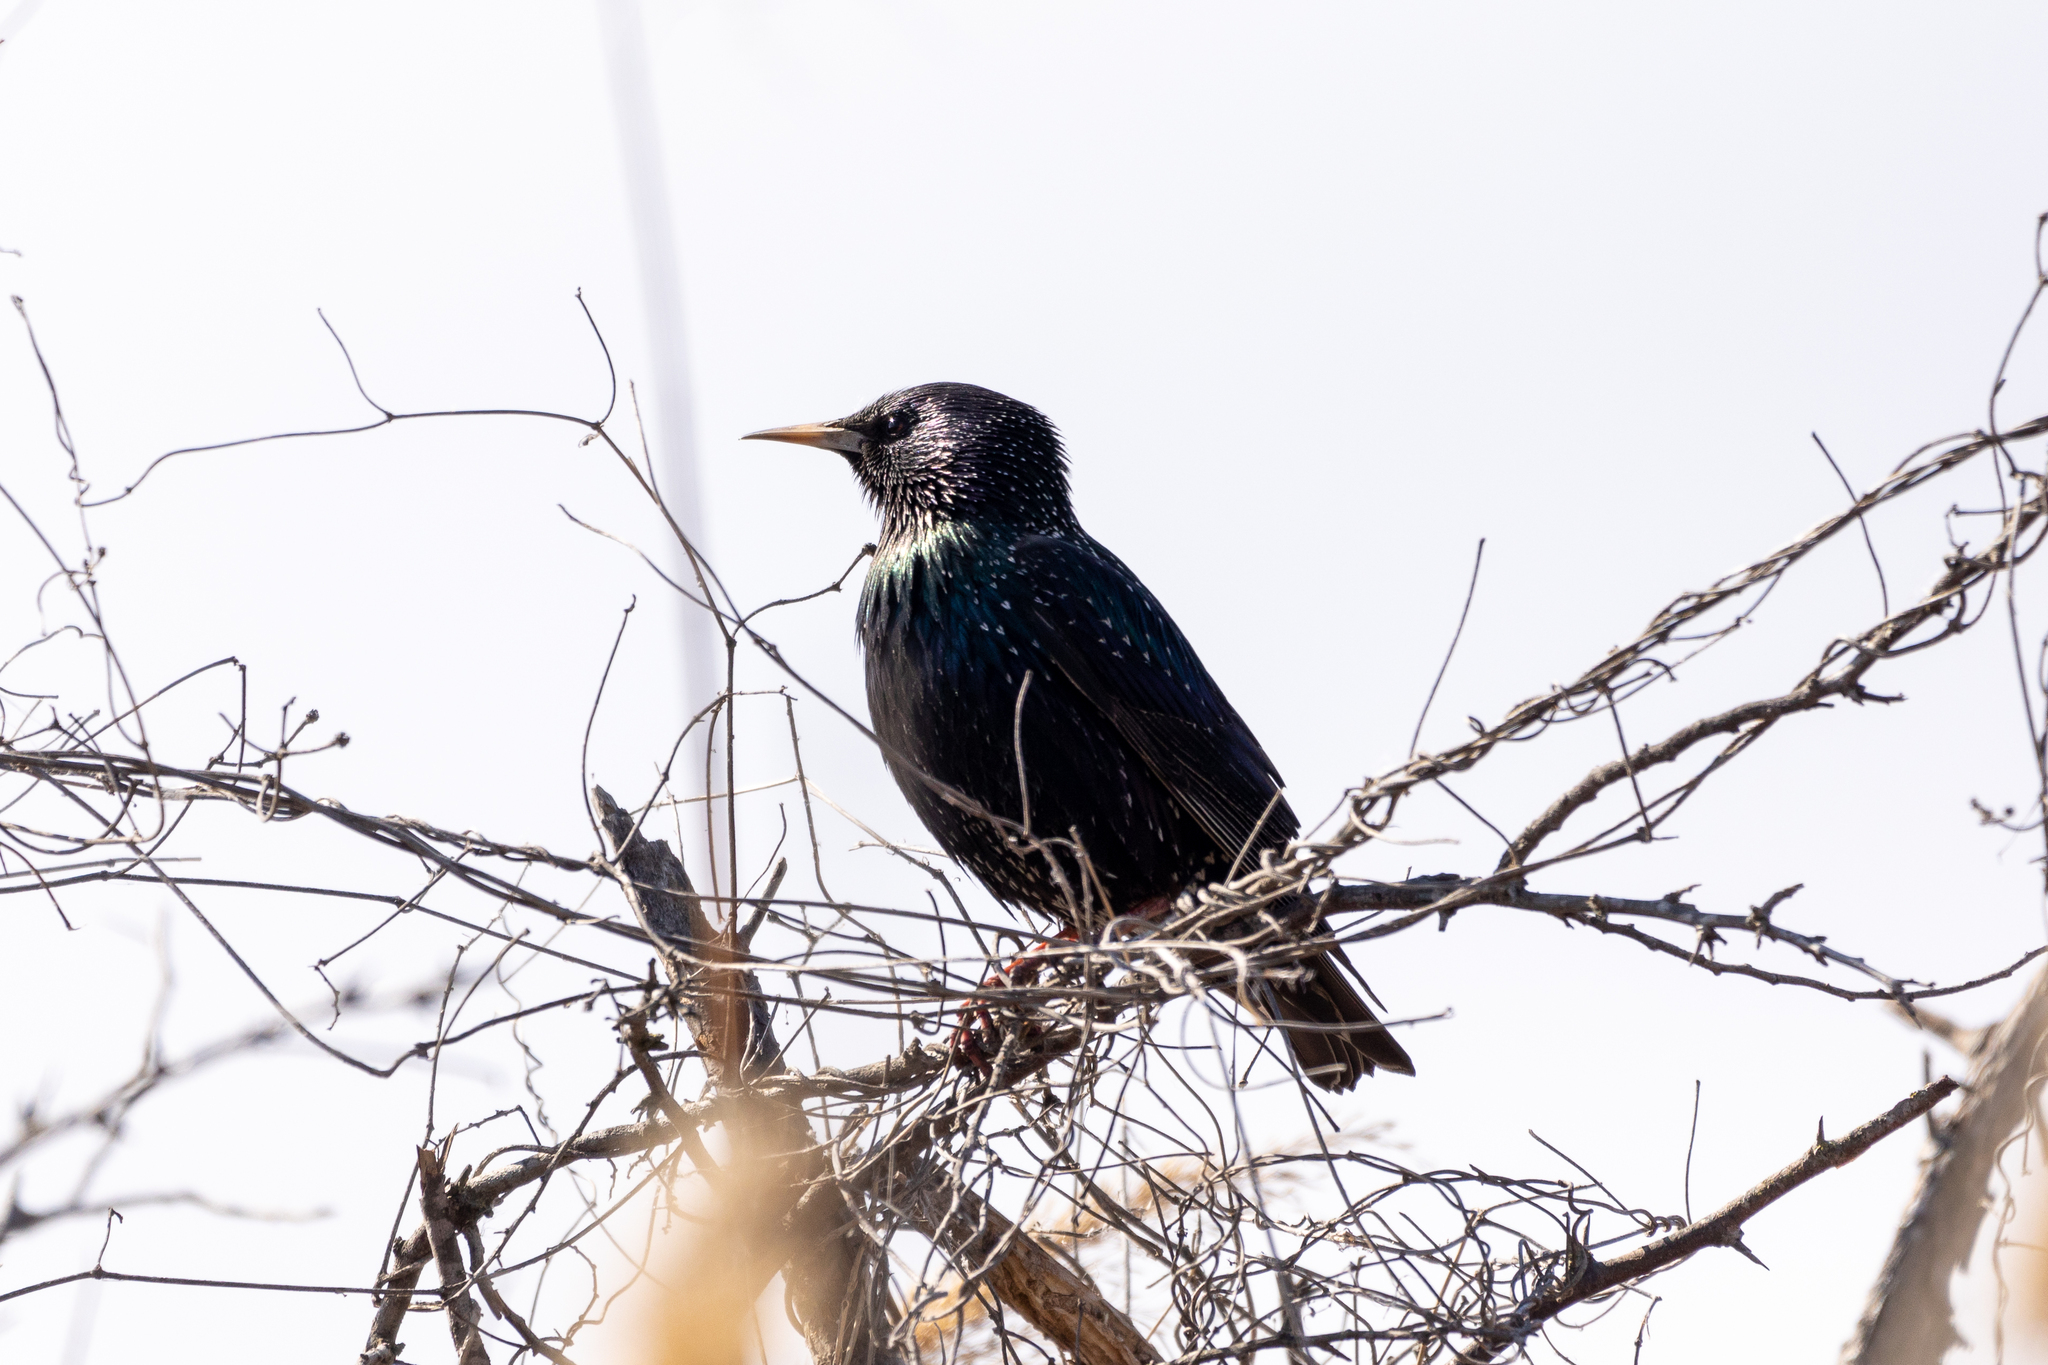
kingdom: Animalia
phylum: Chordata
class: Aves
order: Passeriformes
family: Sturnidae
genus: Sturnus
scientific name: Sturnus vulgaris
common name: Common starling
